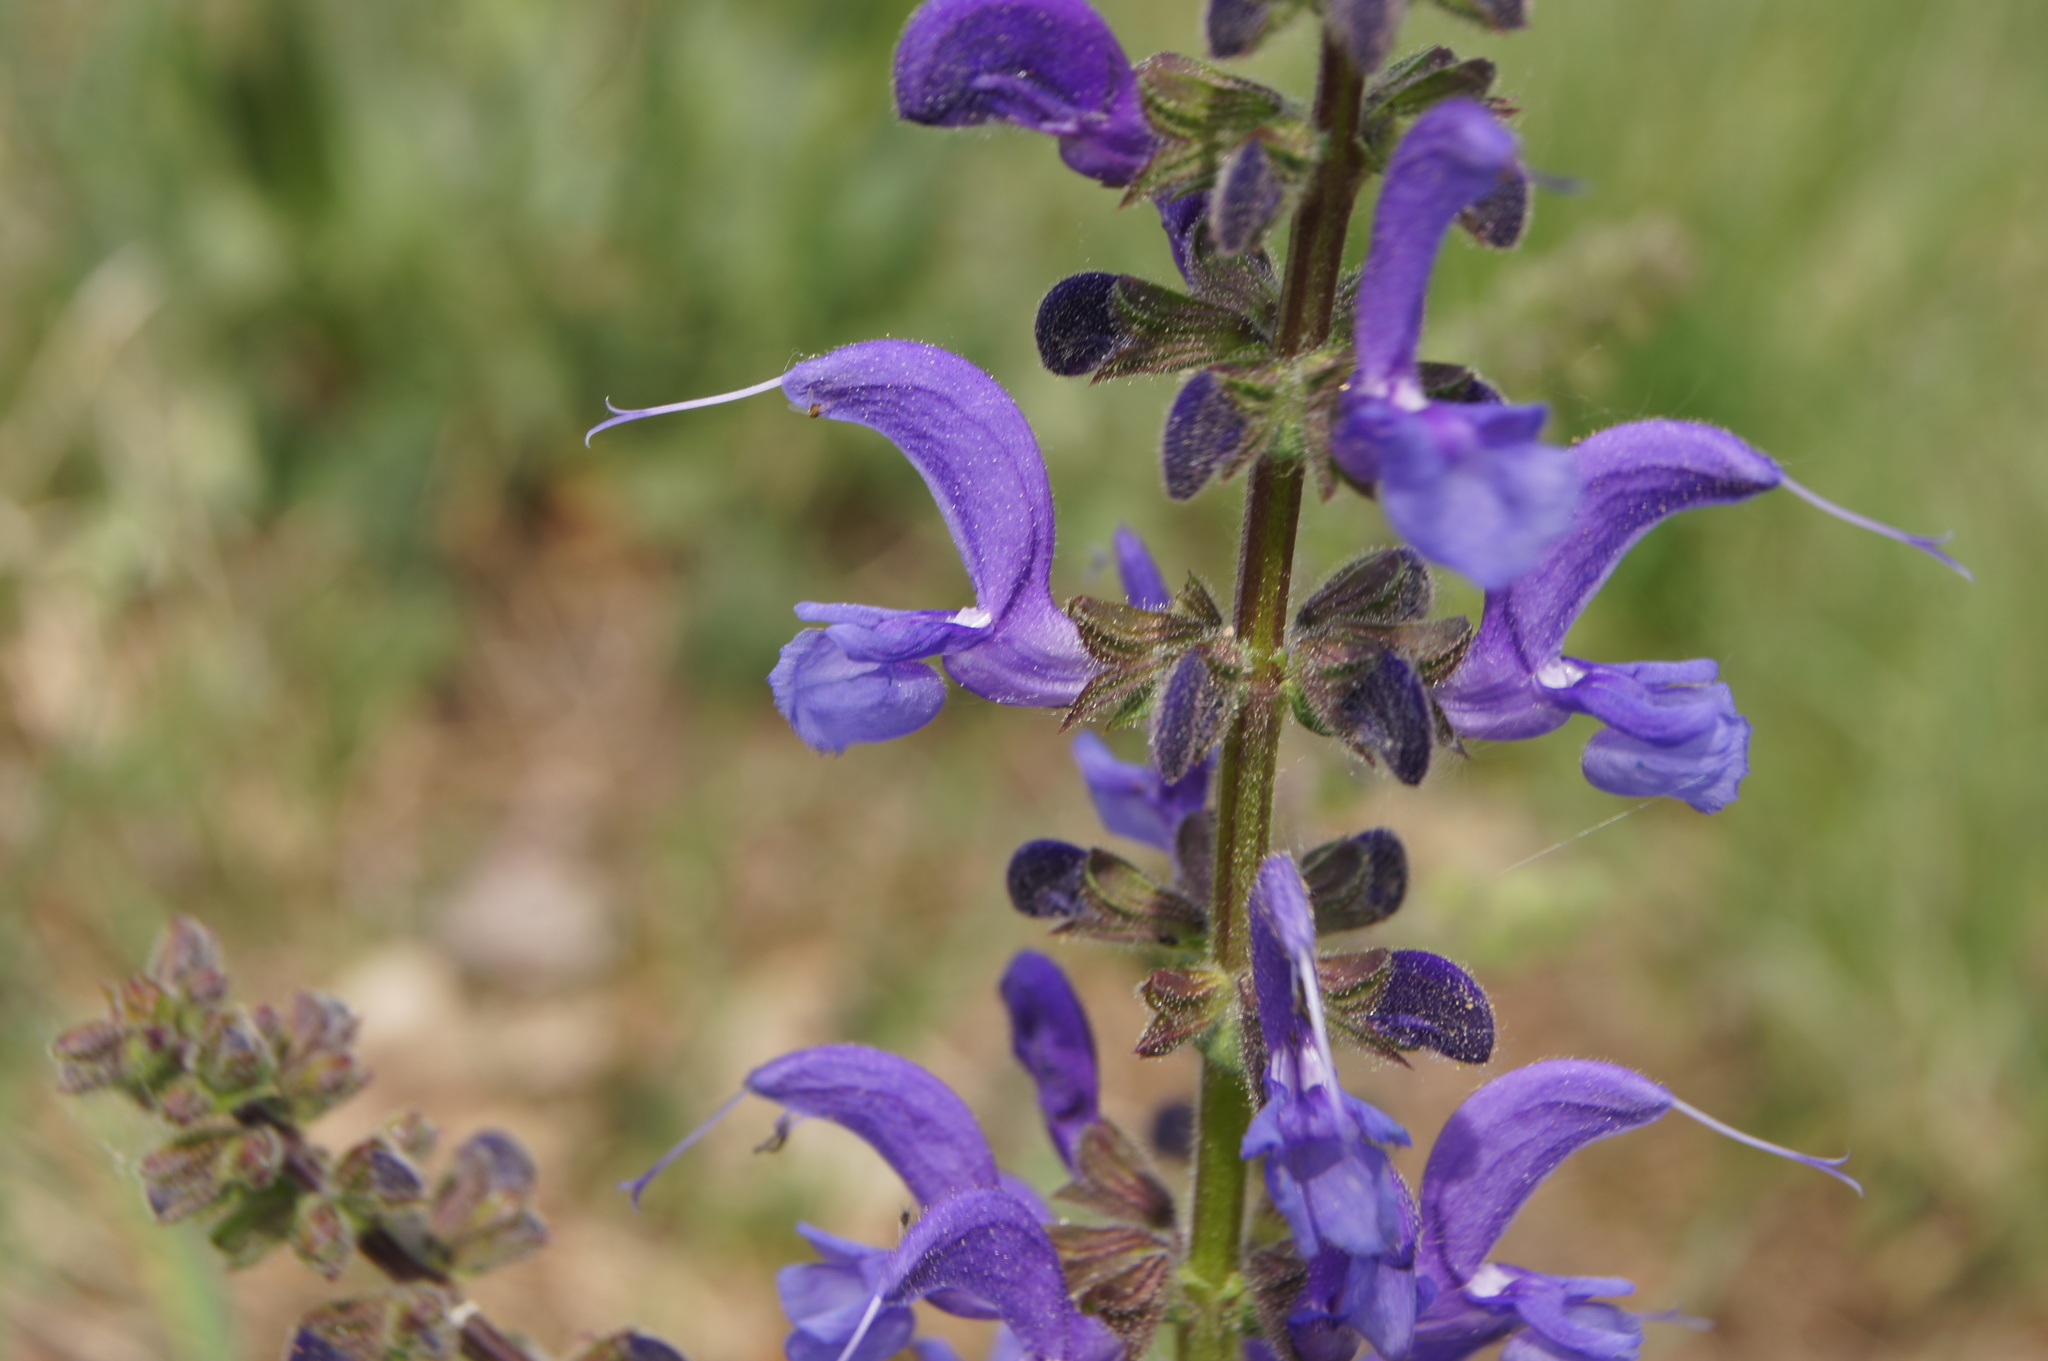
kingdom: Plantae
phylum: Tracheophyta
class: Magnoliopsida
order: Lamiales
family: Lamiaceae
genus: Salvia
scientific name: Salvia pratensis
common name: Meadow sage
